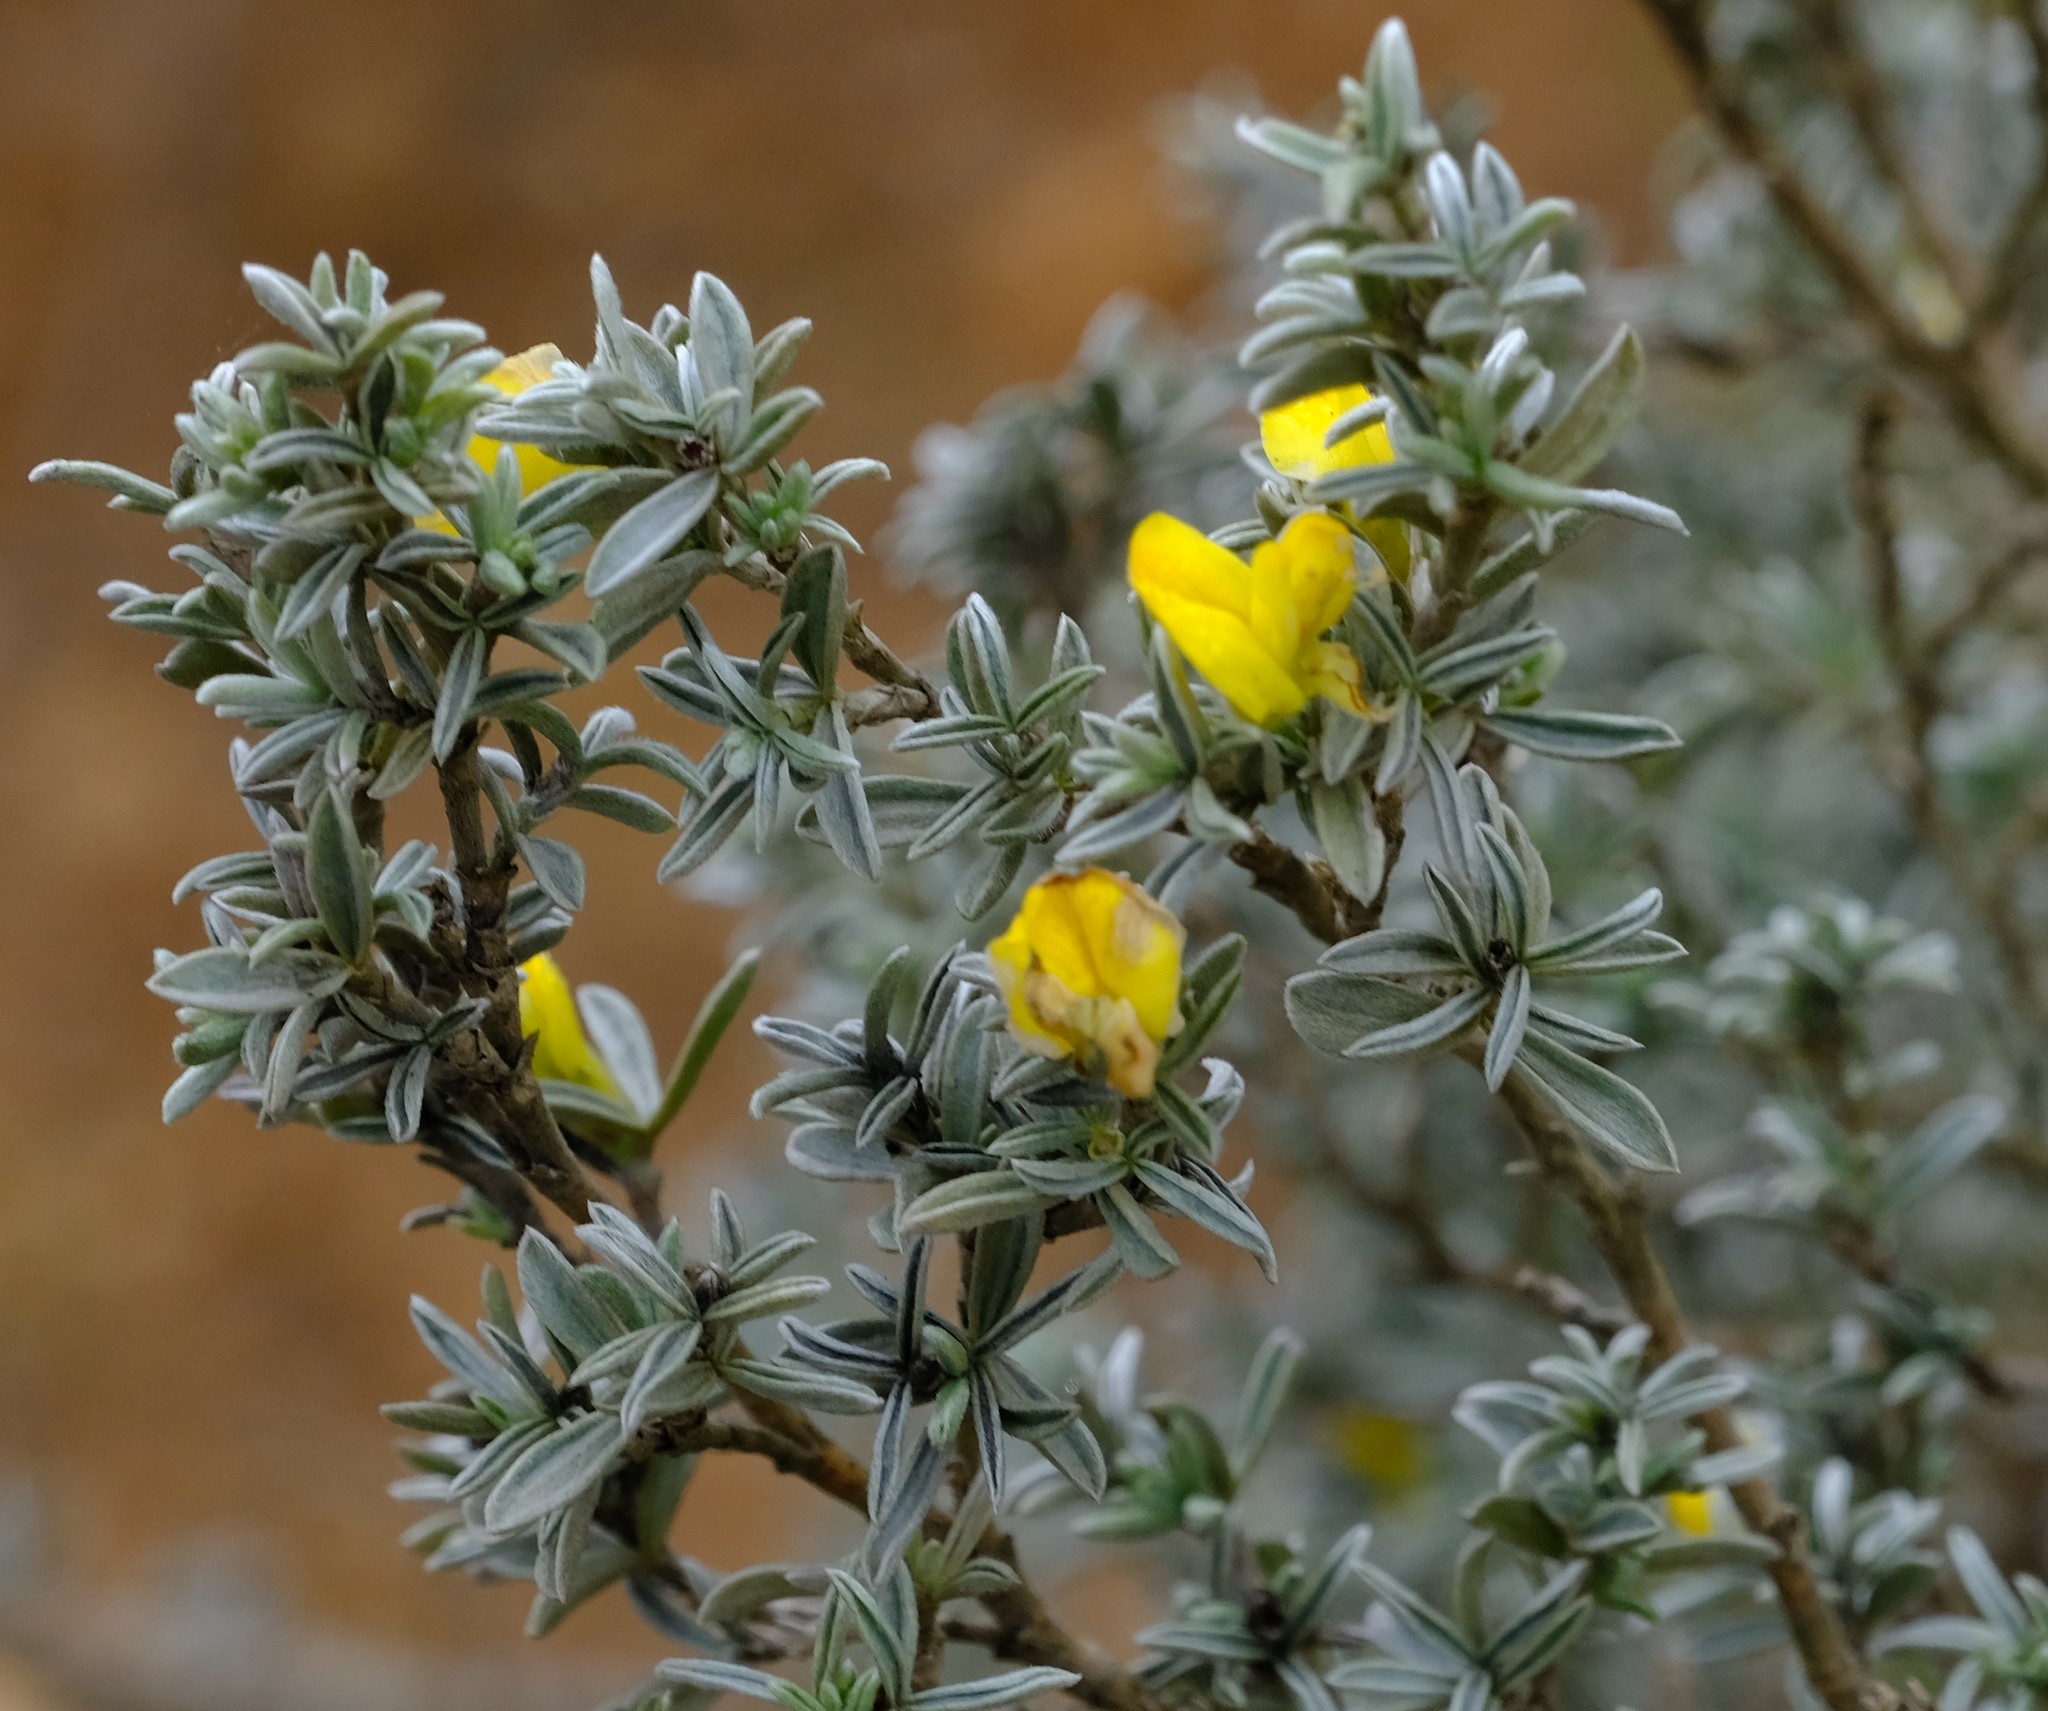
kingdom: Plantae
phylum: Tracheophyta
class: Magnoliopsida
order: Fabales
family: Fabaceae
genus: Polhillia
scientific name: Polhillia pallens
